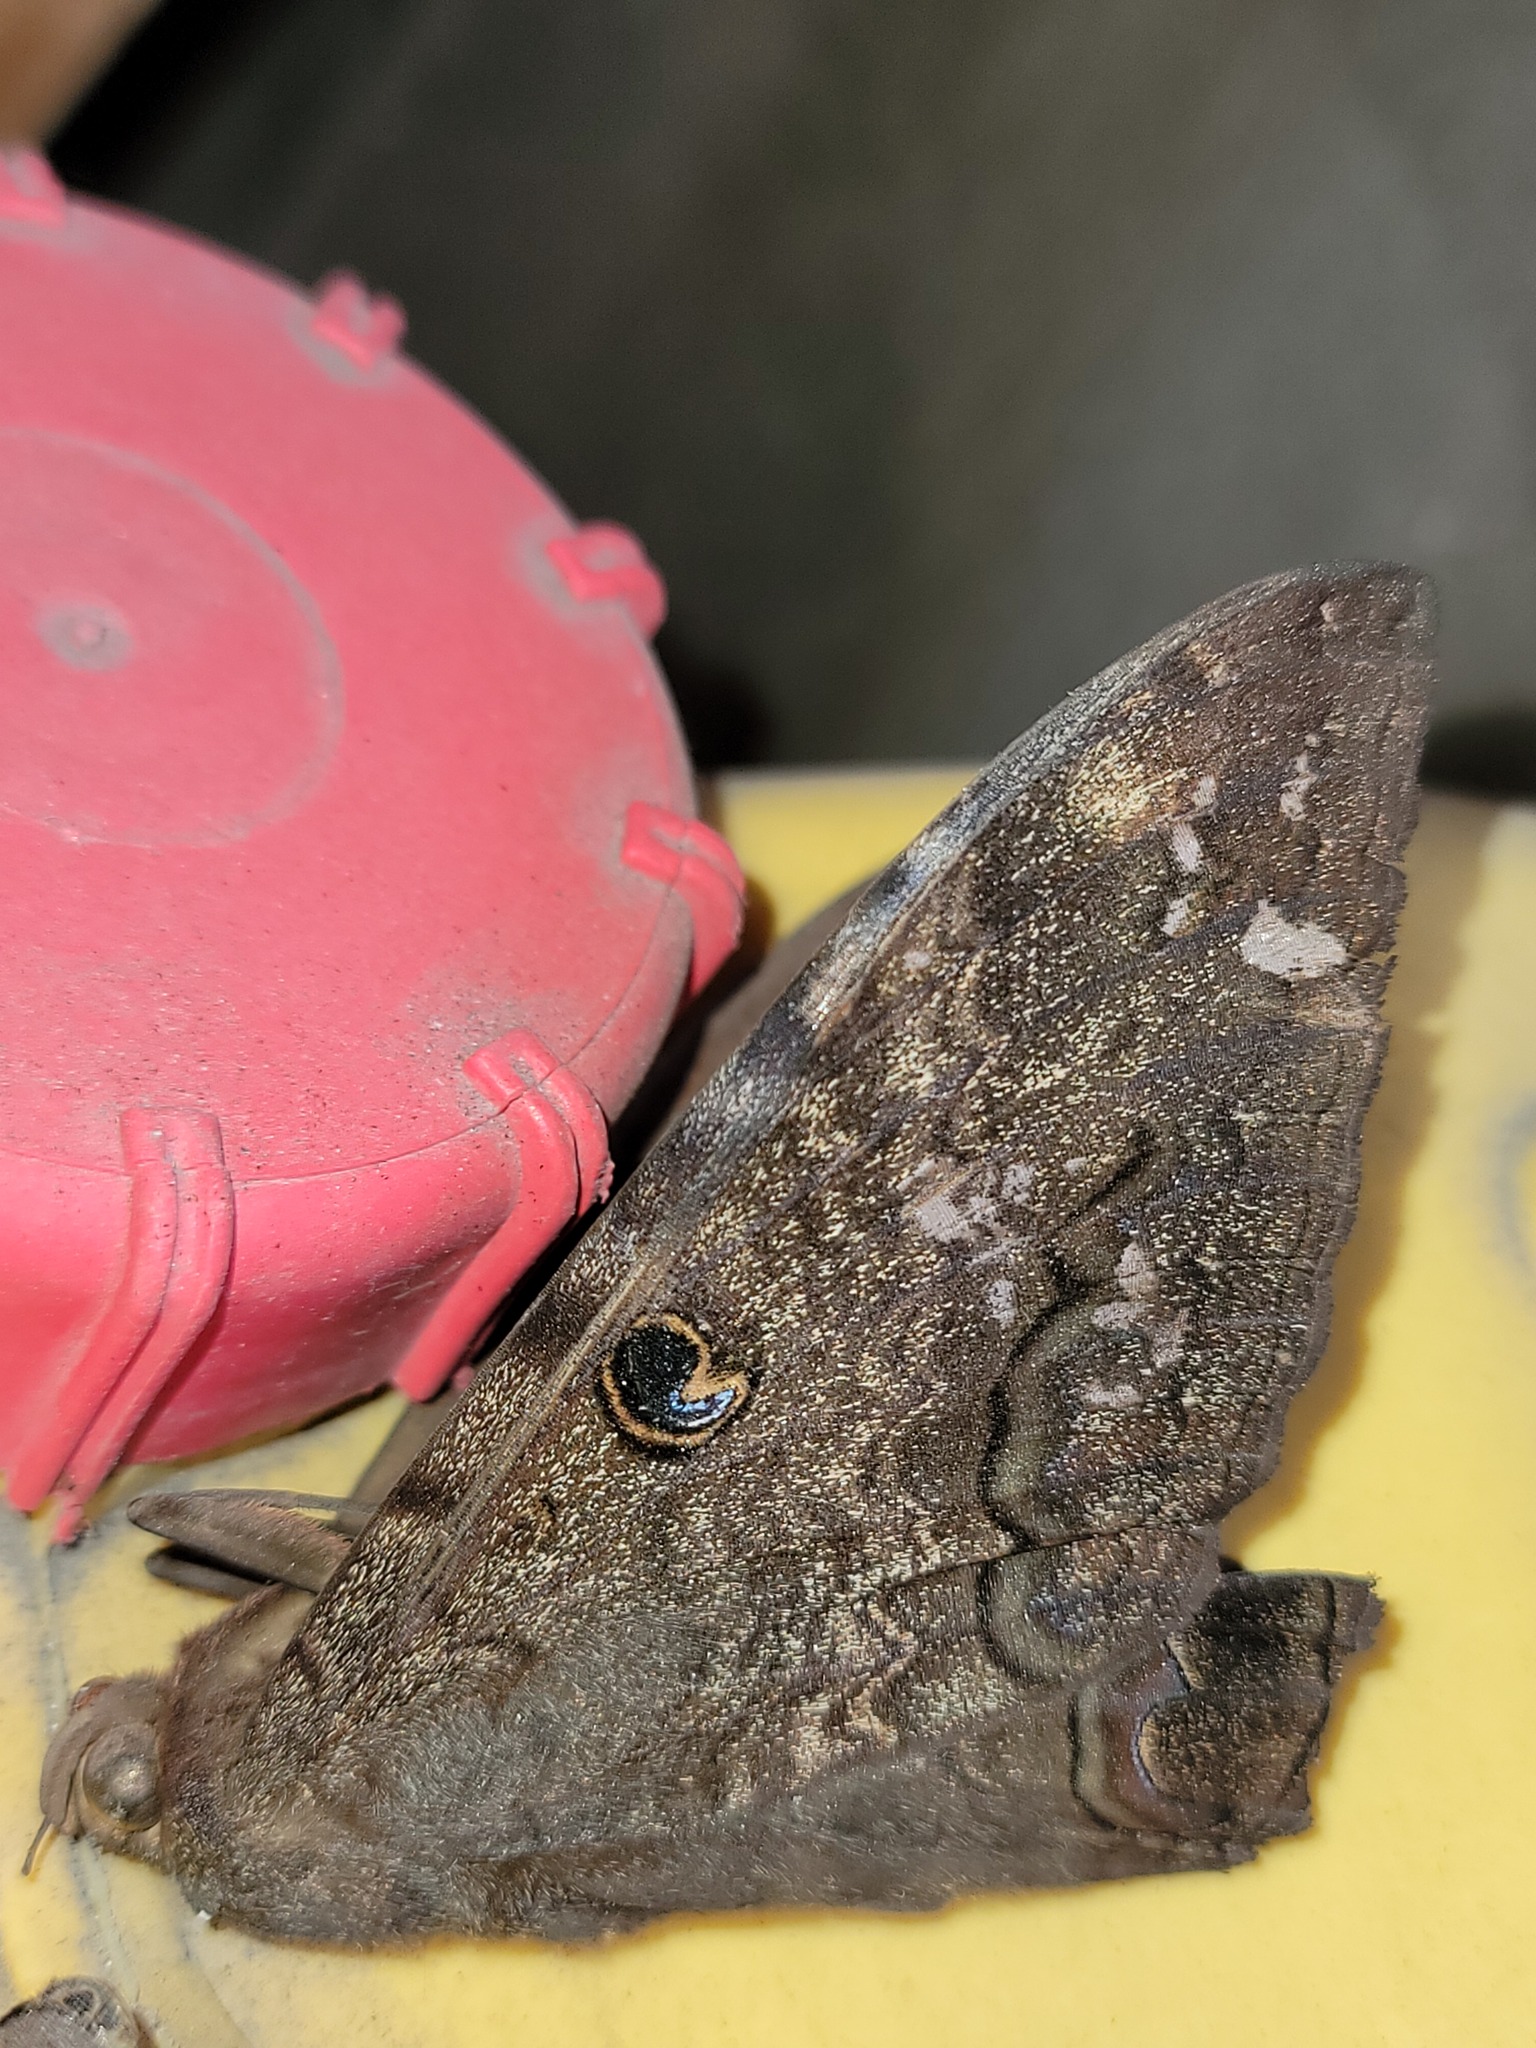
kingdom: Animalia
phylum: Arthropoda
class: Insecta
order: Lepidoptera
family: Erebidae
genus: Ascalapha
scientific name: Ascalapha odorata
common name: Black witch
